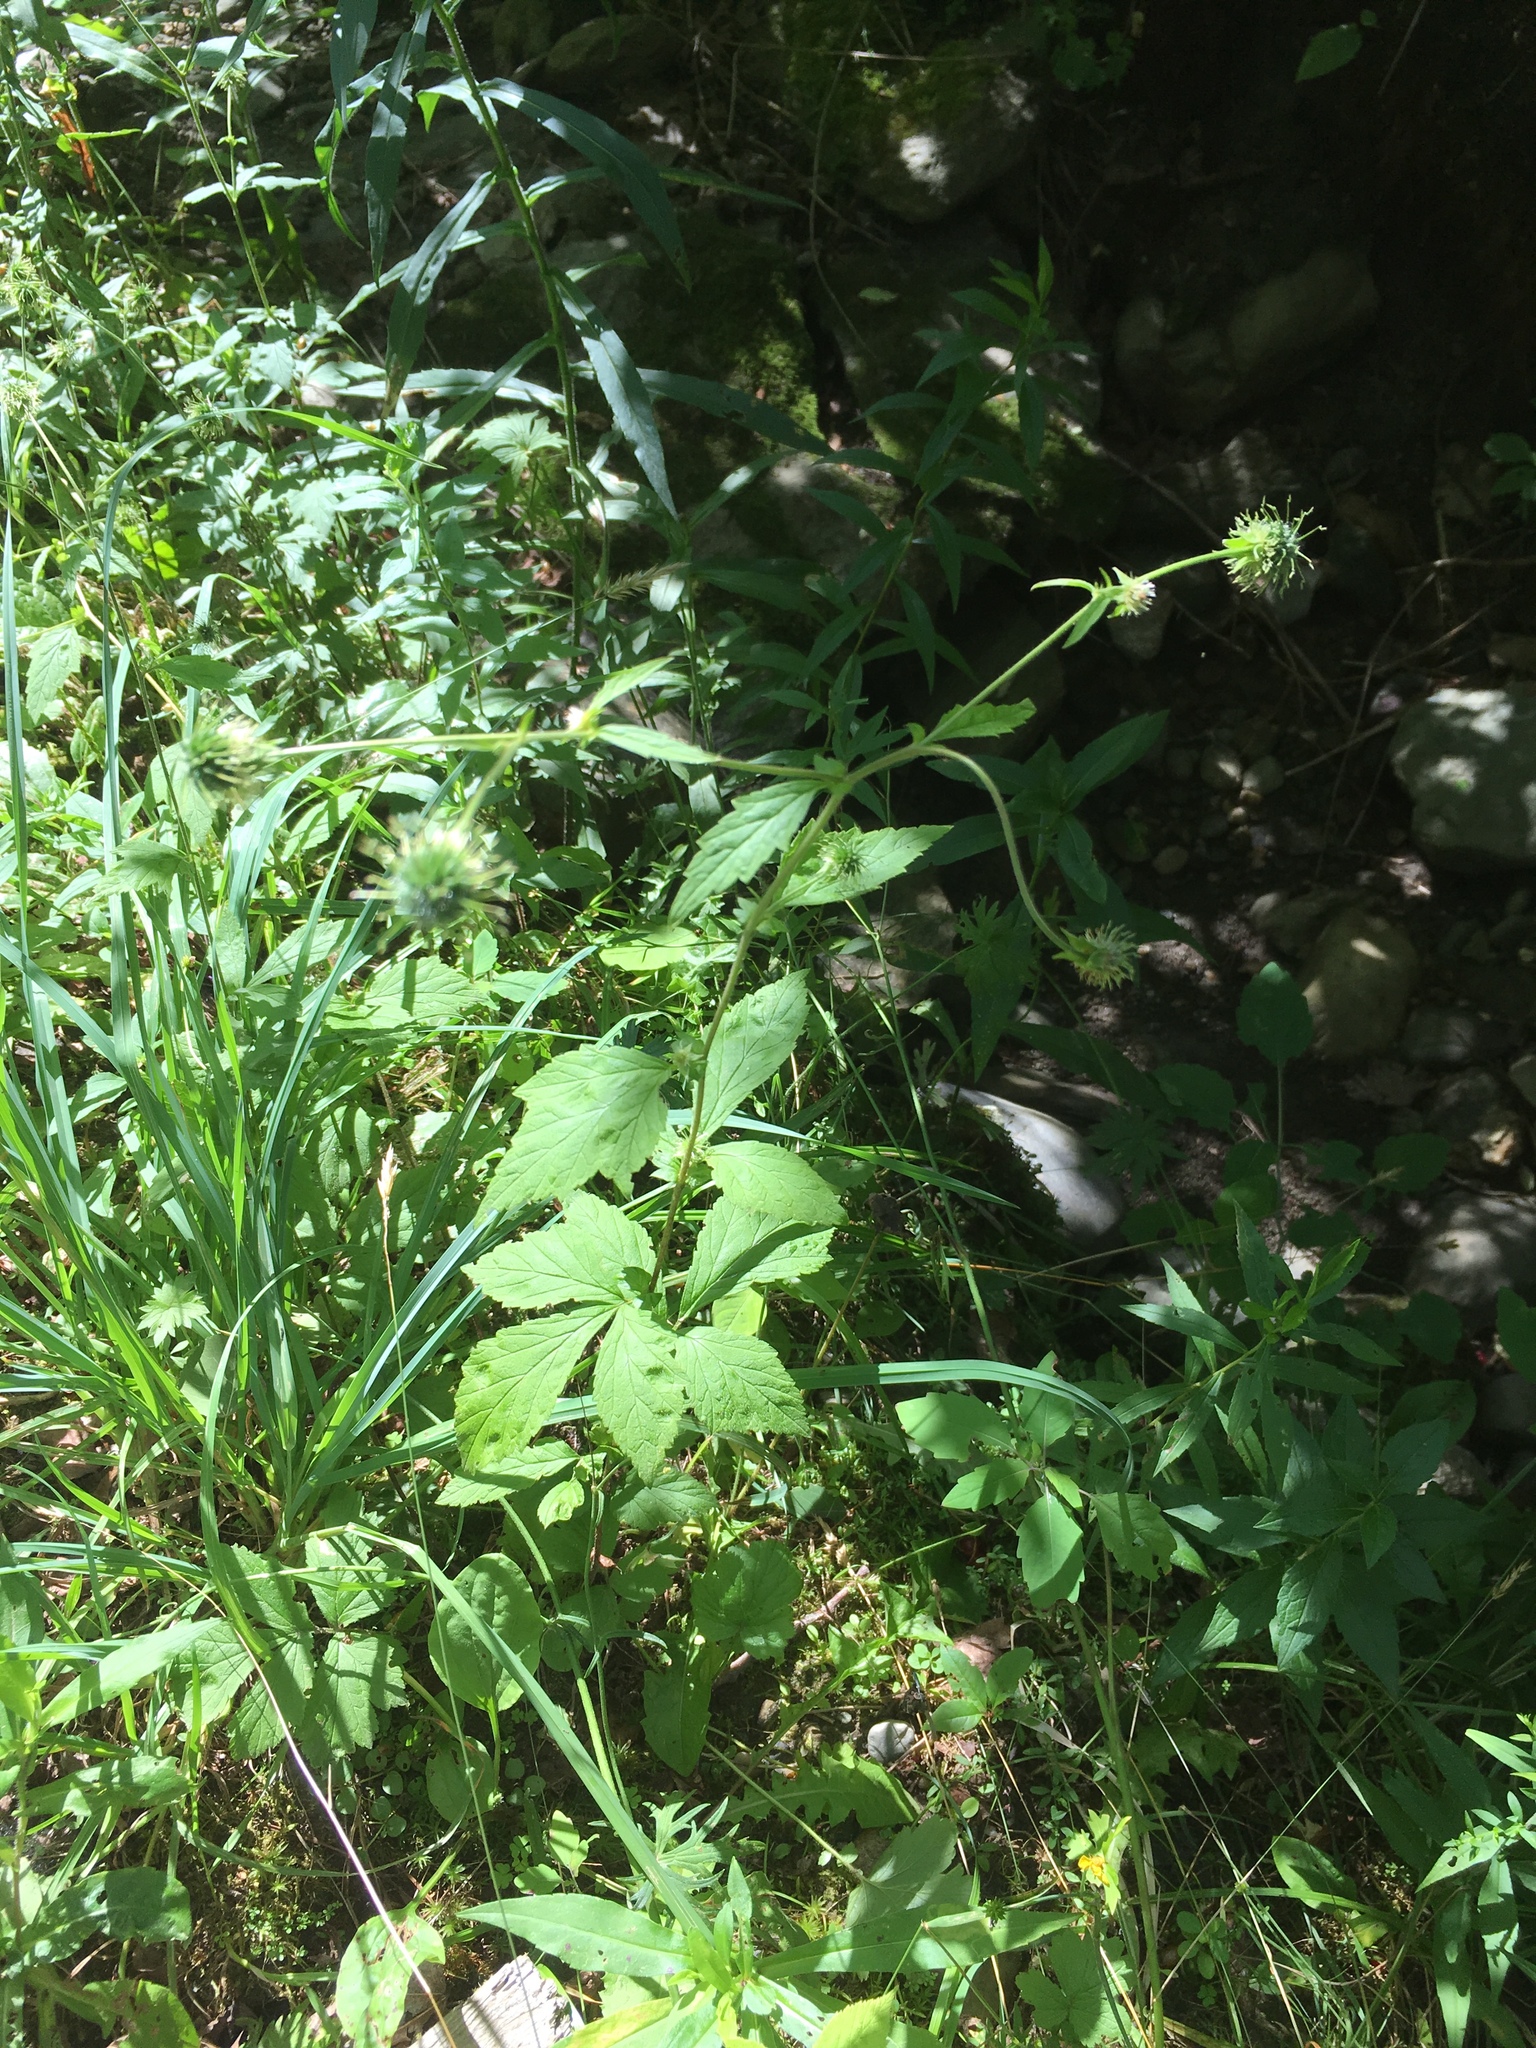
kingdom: Plantae
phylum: Tracheophyta
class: Magnoliopsida
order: Rosales
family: Rosaceae
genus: Geum
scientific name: Geum canadense
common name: White avens
